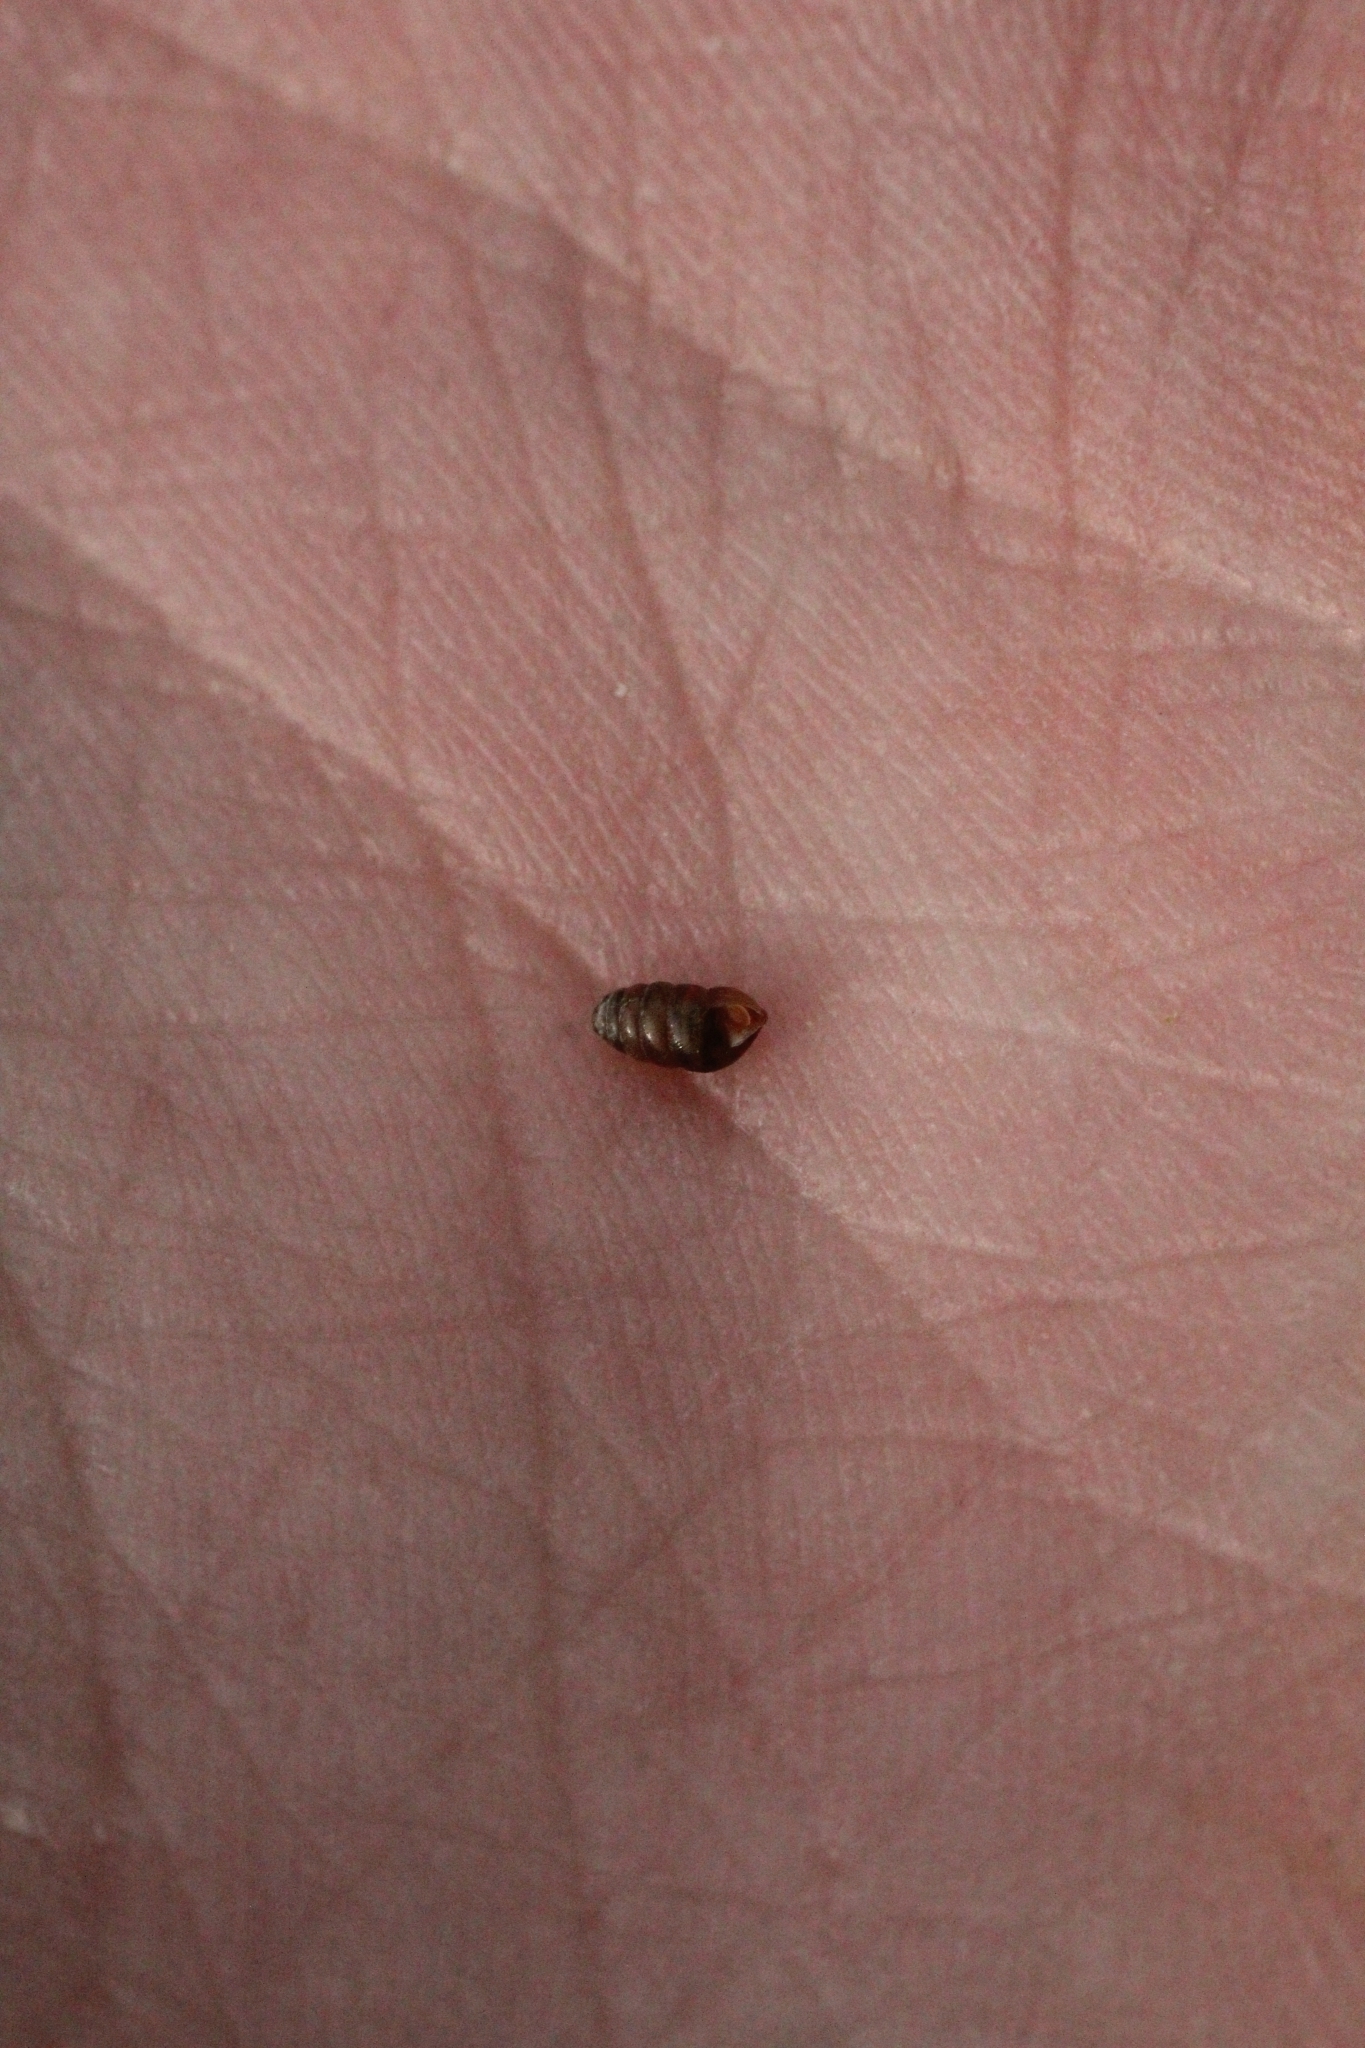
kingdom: Animalia
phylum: Mollusca
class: Gastropoda
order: Stylommatophora
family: Lauriidae
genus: Lauria
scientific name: Lauria cylindracea
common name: Common chrysalis snail
